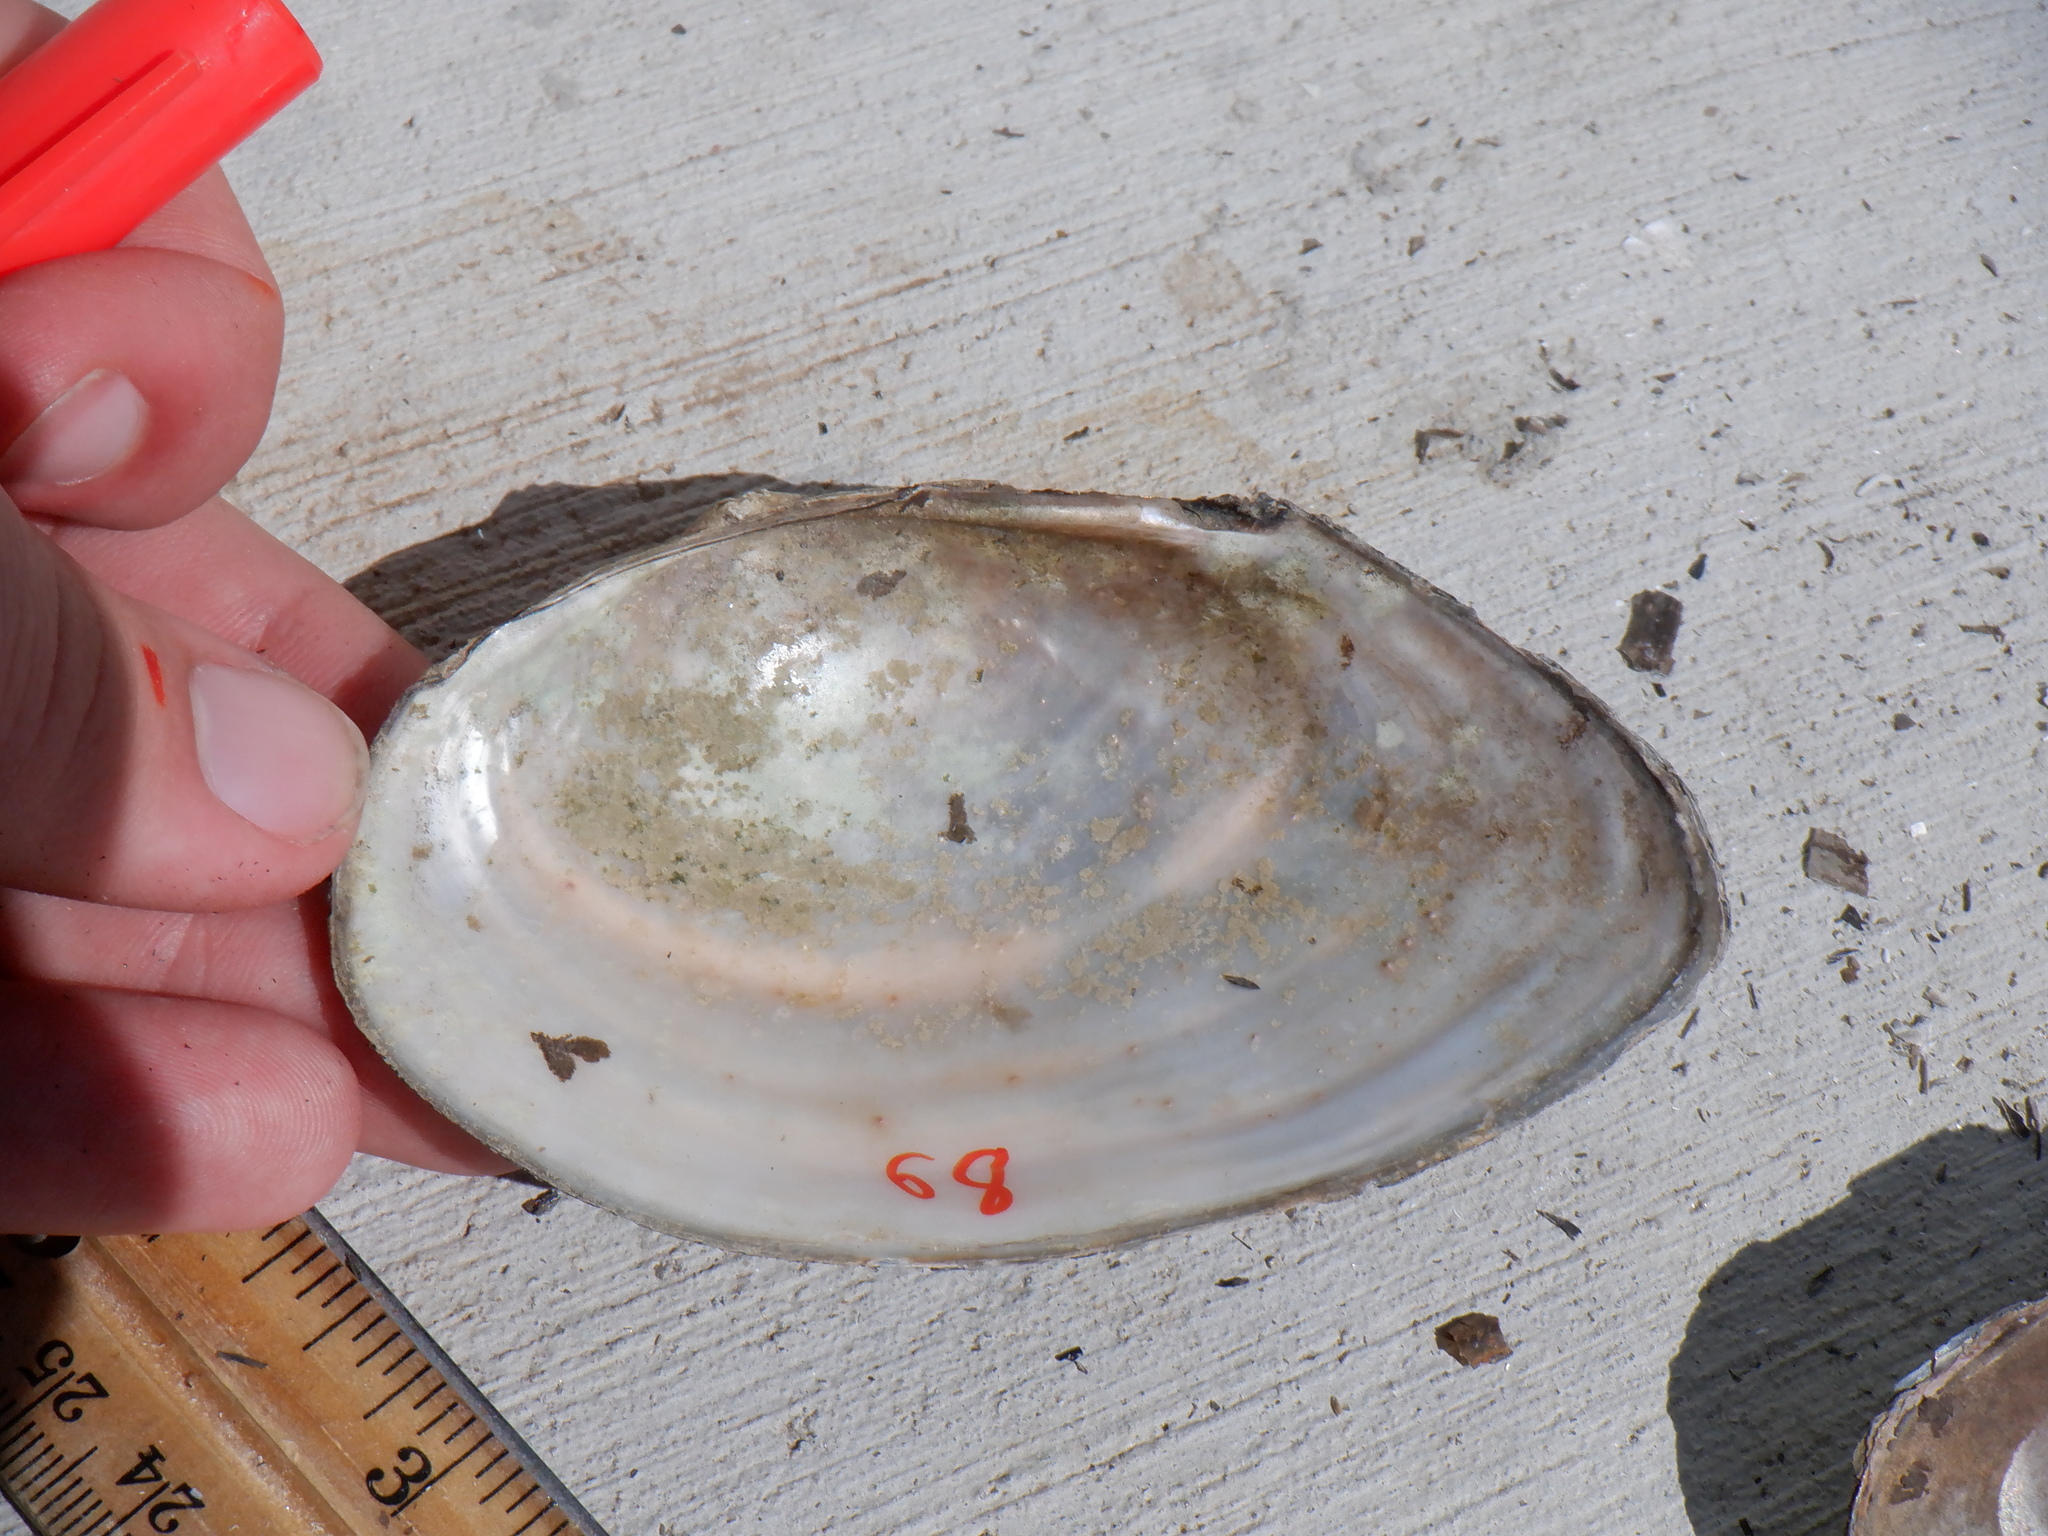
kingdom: Animalia
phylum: Mollusca
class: Bivalvia
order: Unionida
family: Unionidae
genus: Pyganodon
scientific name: Pyganodon grandis
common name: Giant floater
